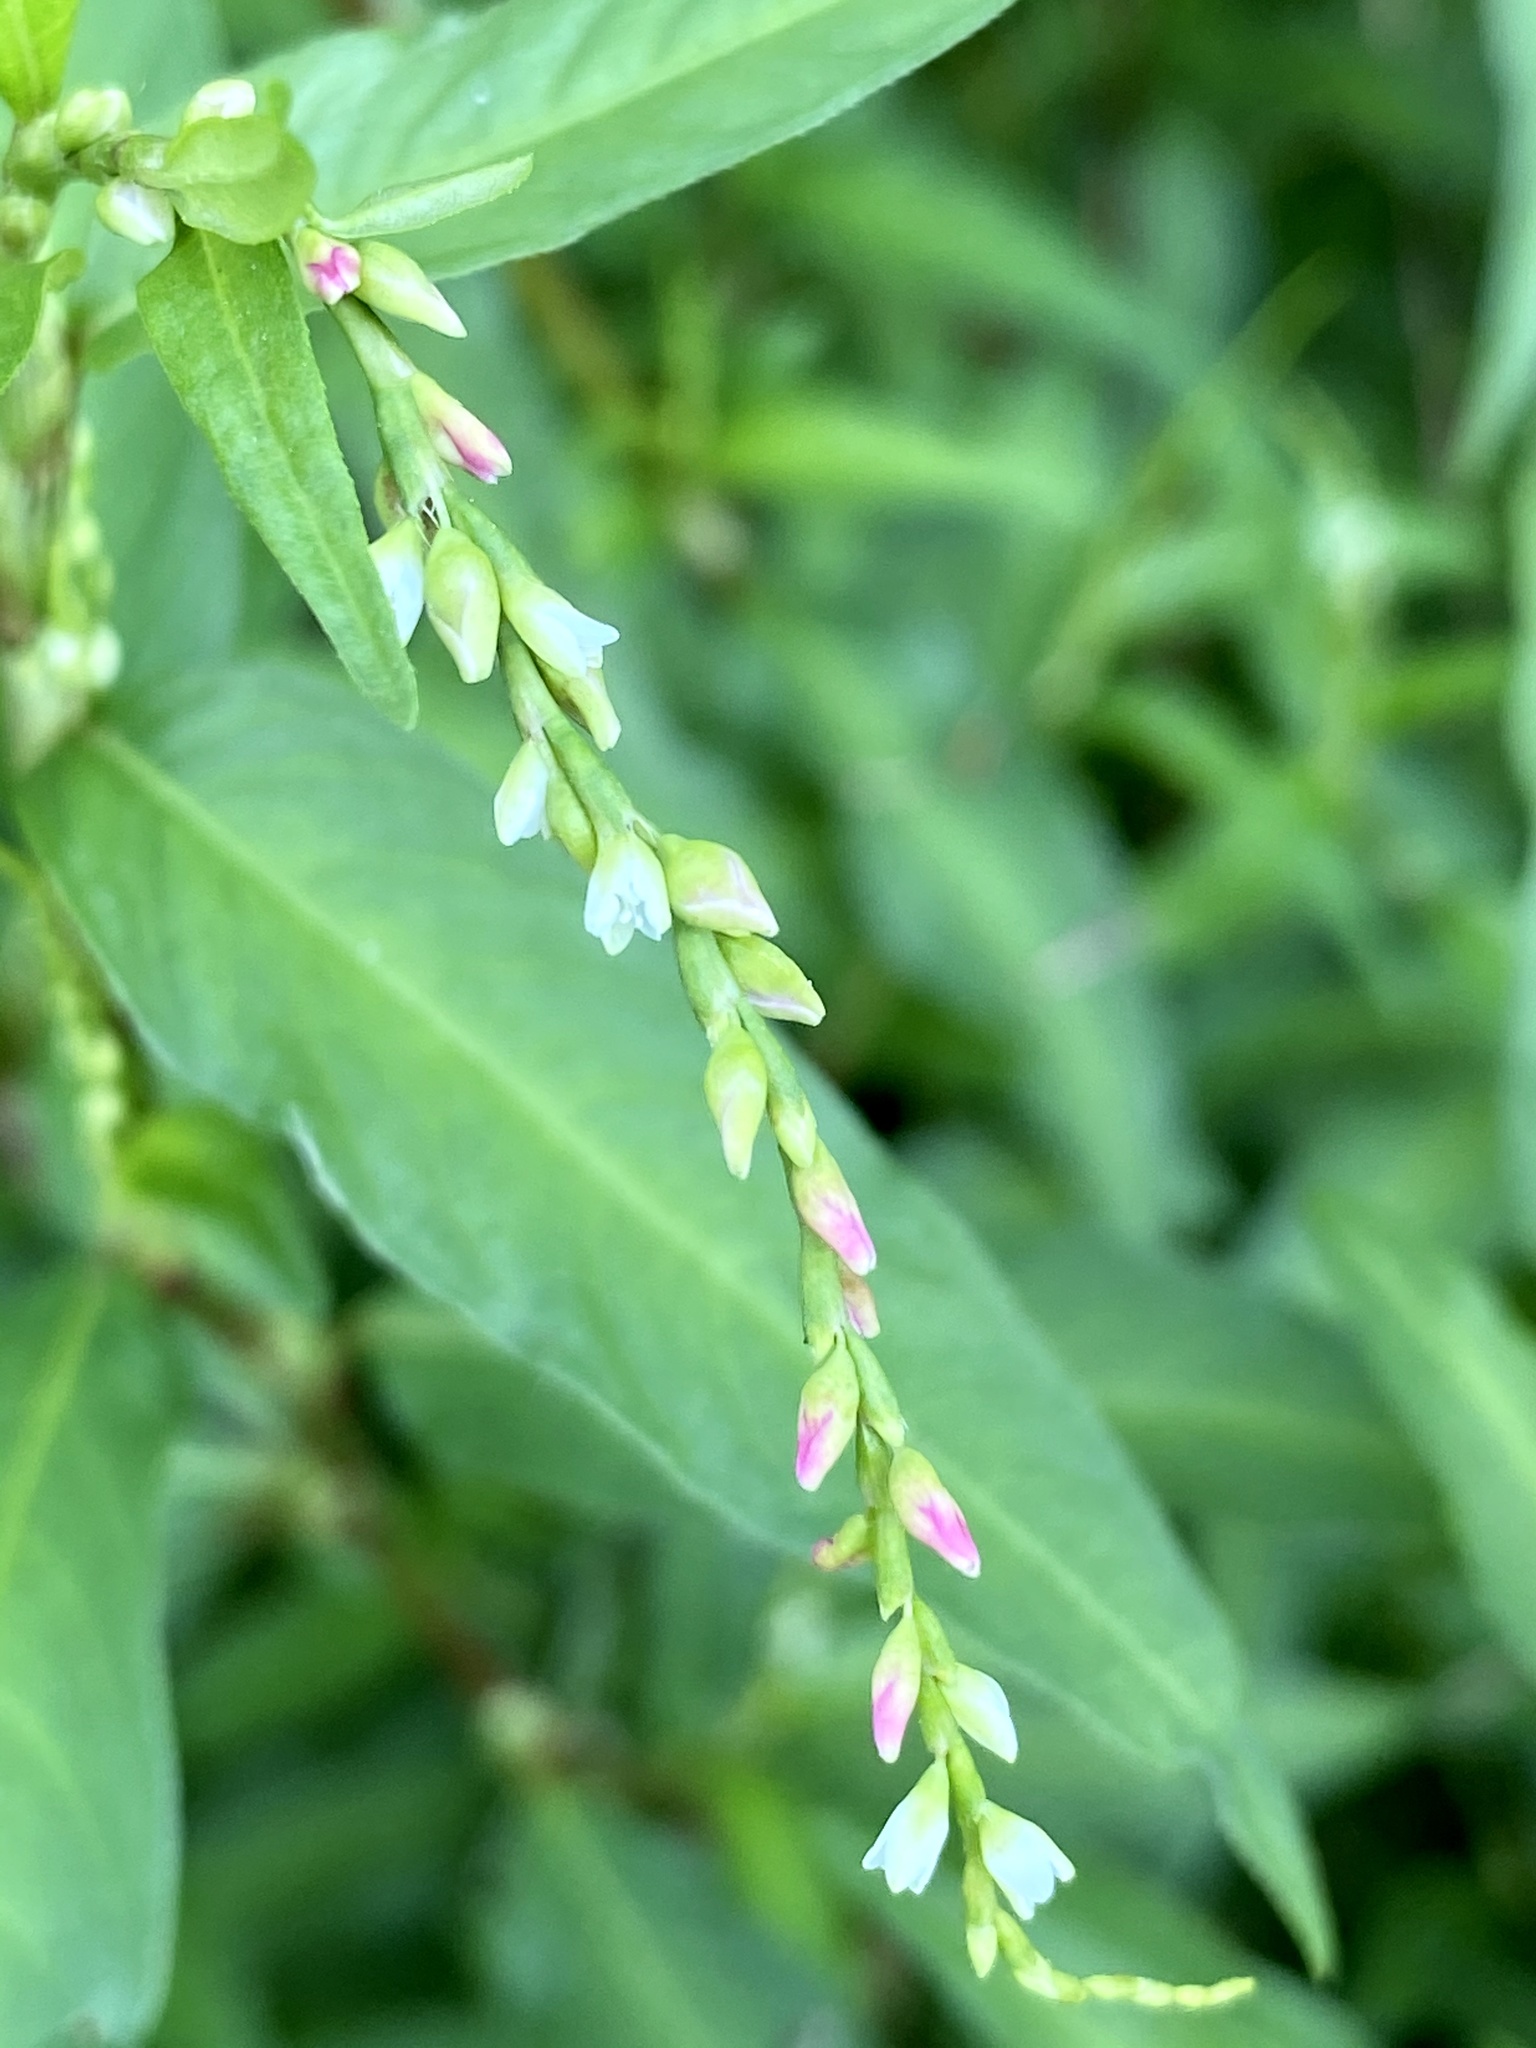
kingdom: Plantae
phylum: Tracheophyta
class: Magnoliopsida
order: Caryophyllales
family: Polygonaceae
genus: Persicaria
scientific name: Persicaria hydropiper
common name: Water-pepper
